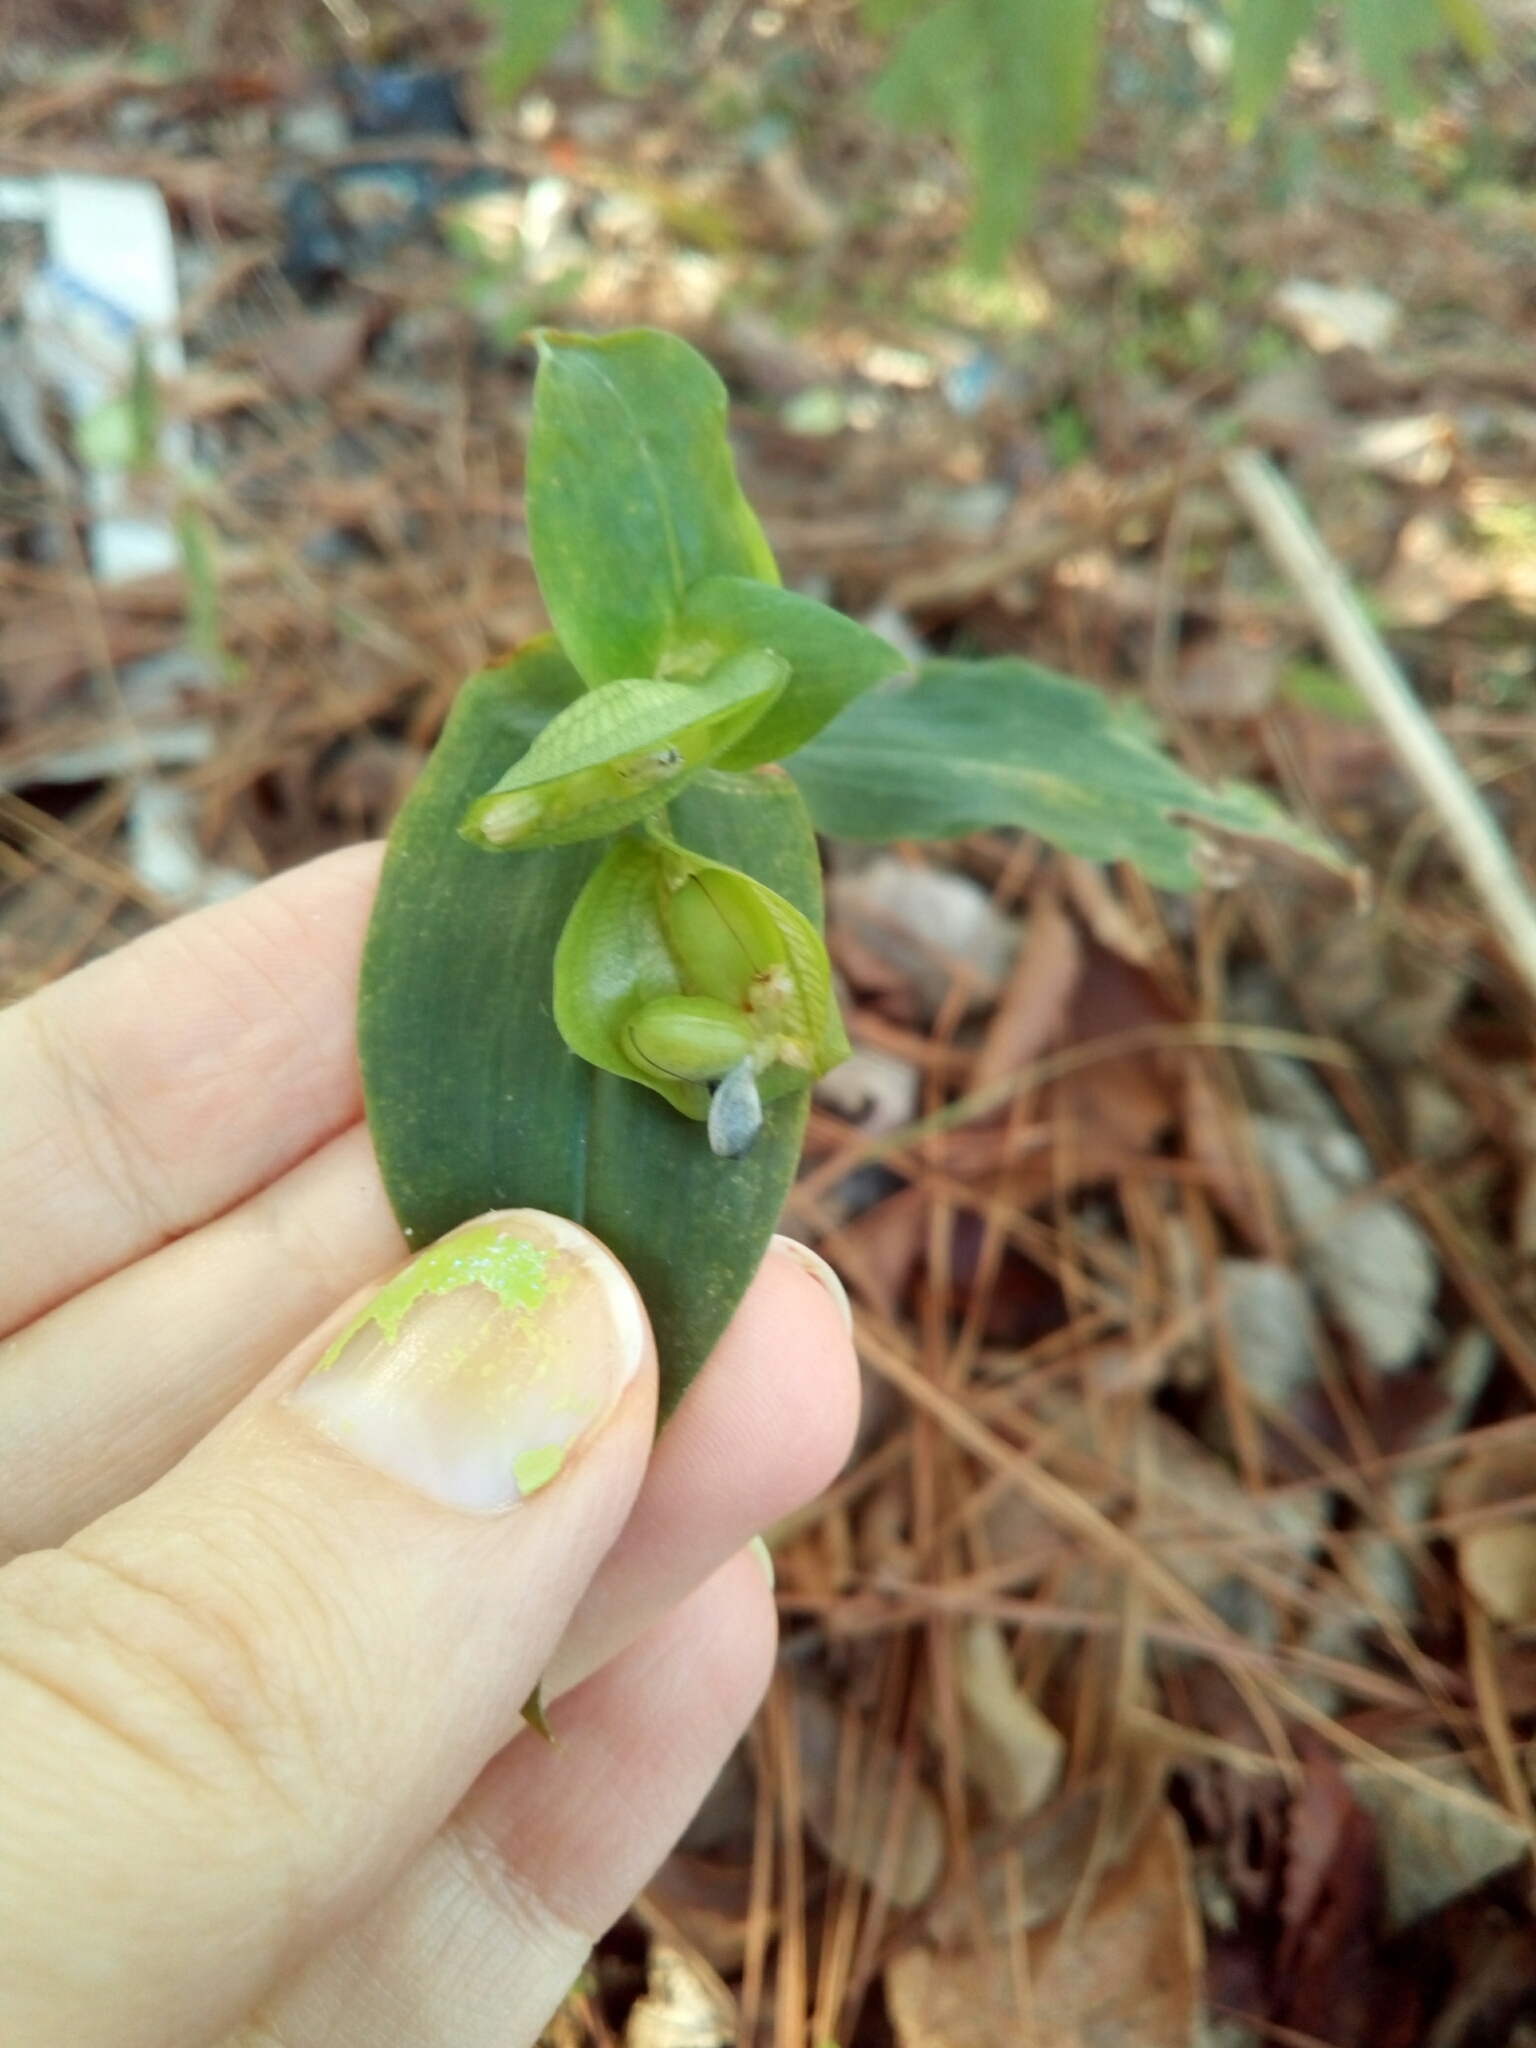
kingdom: Plantae
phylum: Tracheophyta
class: Liliopsida
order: Commelinales
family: Commelinaceae
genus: Commelina
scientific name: Commelina communis
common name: Asiatic dayflower
